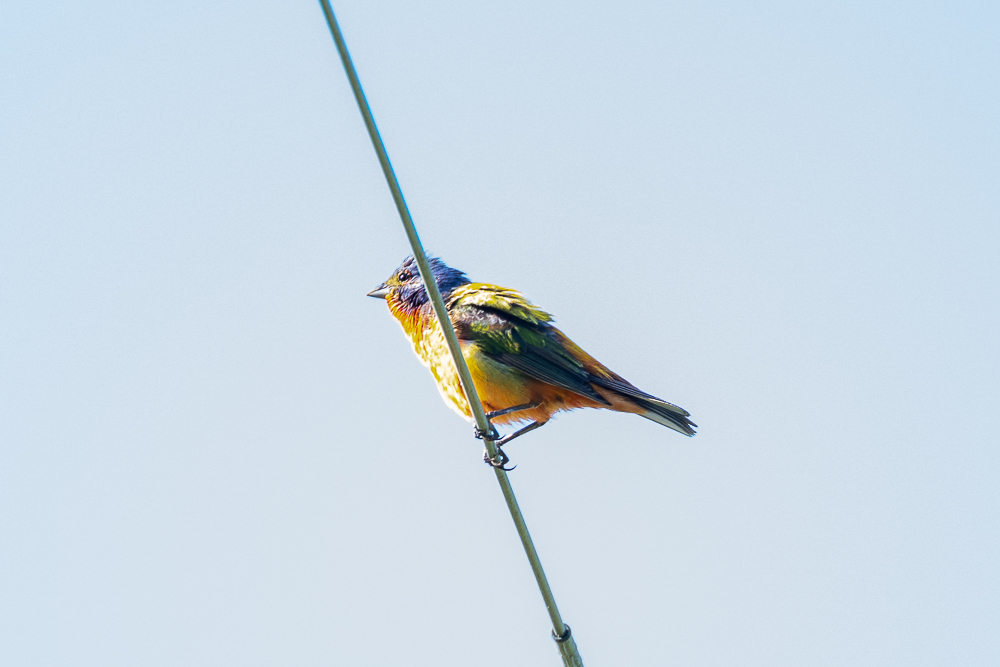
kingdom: Animalia
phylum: Chordata
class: Aves
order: Passeriformes
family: Cardinalidae
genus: Passerina
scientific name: Passerina ciris
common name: Painted bunting
